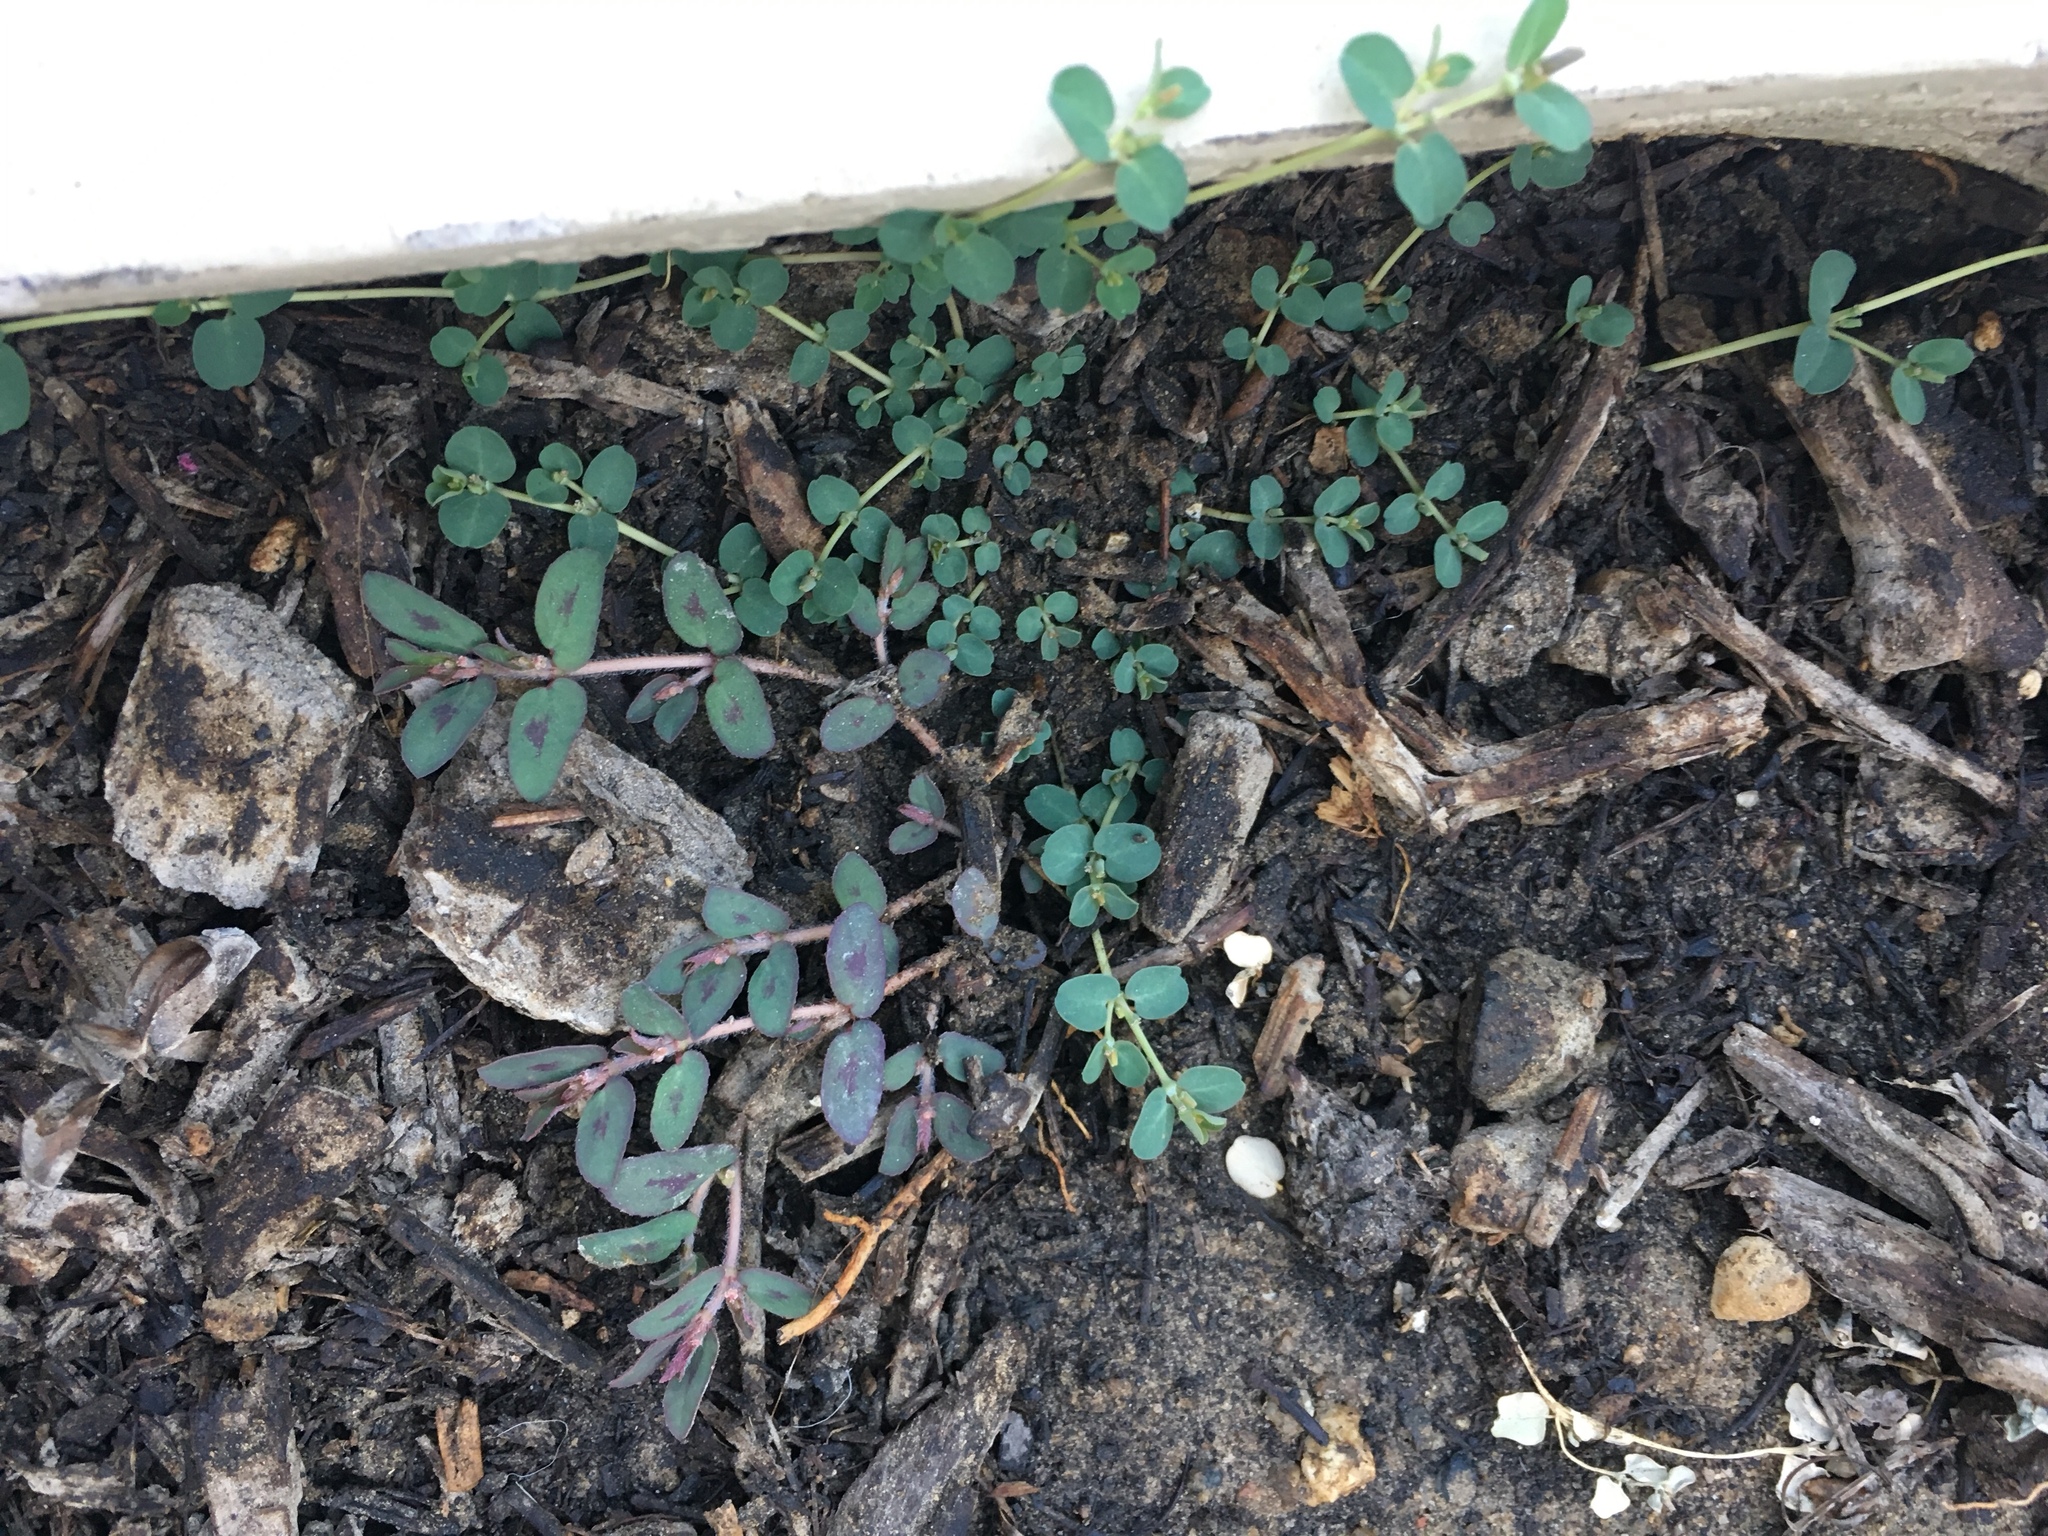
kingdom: Plantae
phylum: Tracheophyta
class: Magnoliopsida
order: Malpighiales
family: Euphorbiaceae
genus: Euphorbia
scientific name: Euphorbia serpens
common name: Matted sandmat
